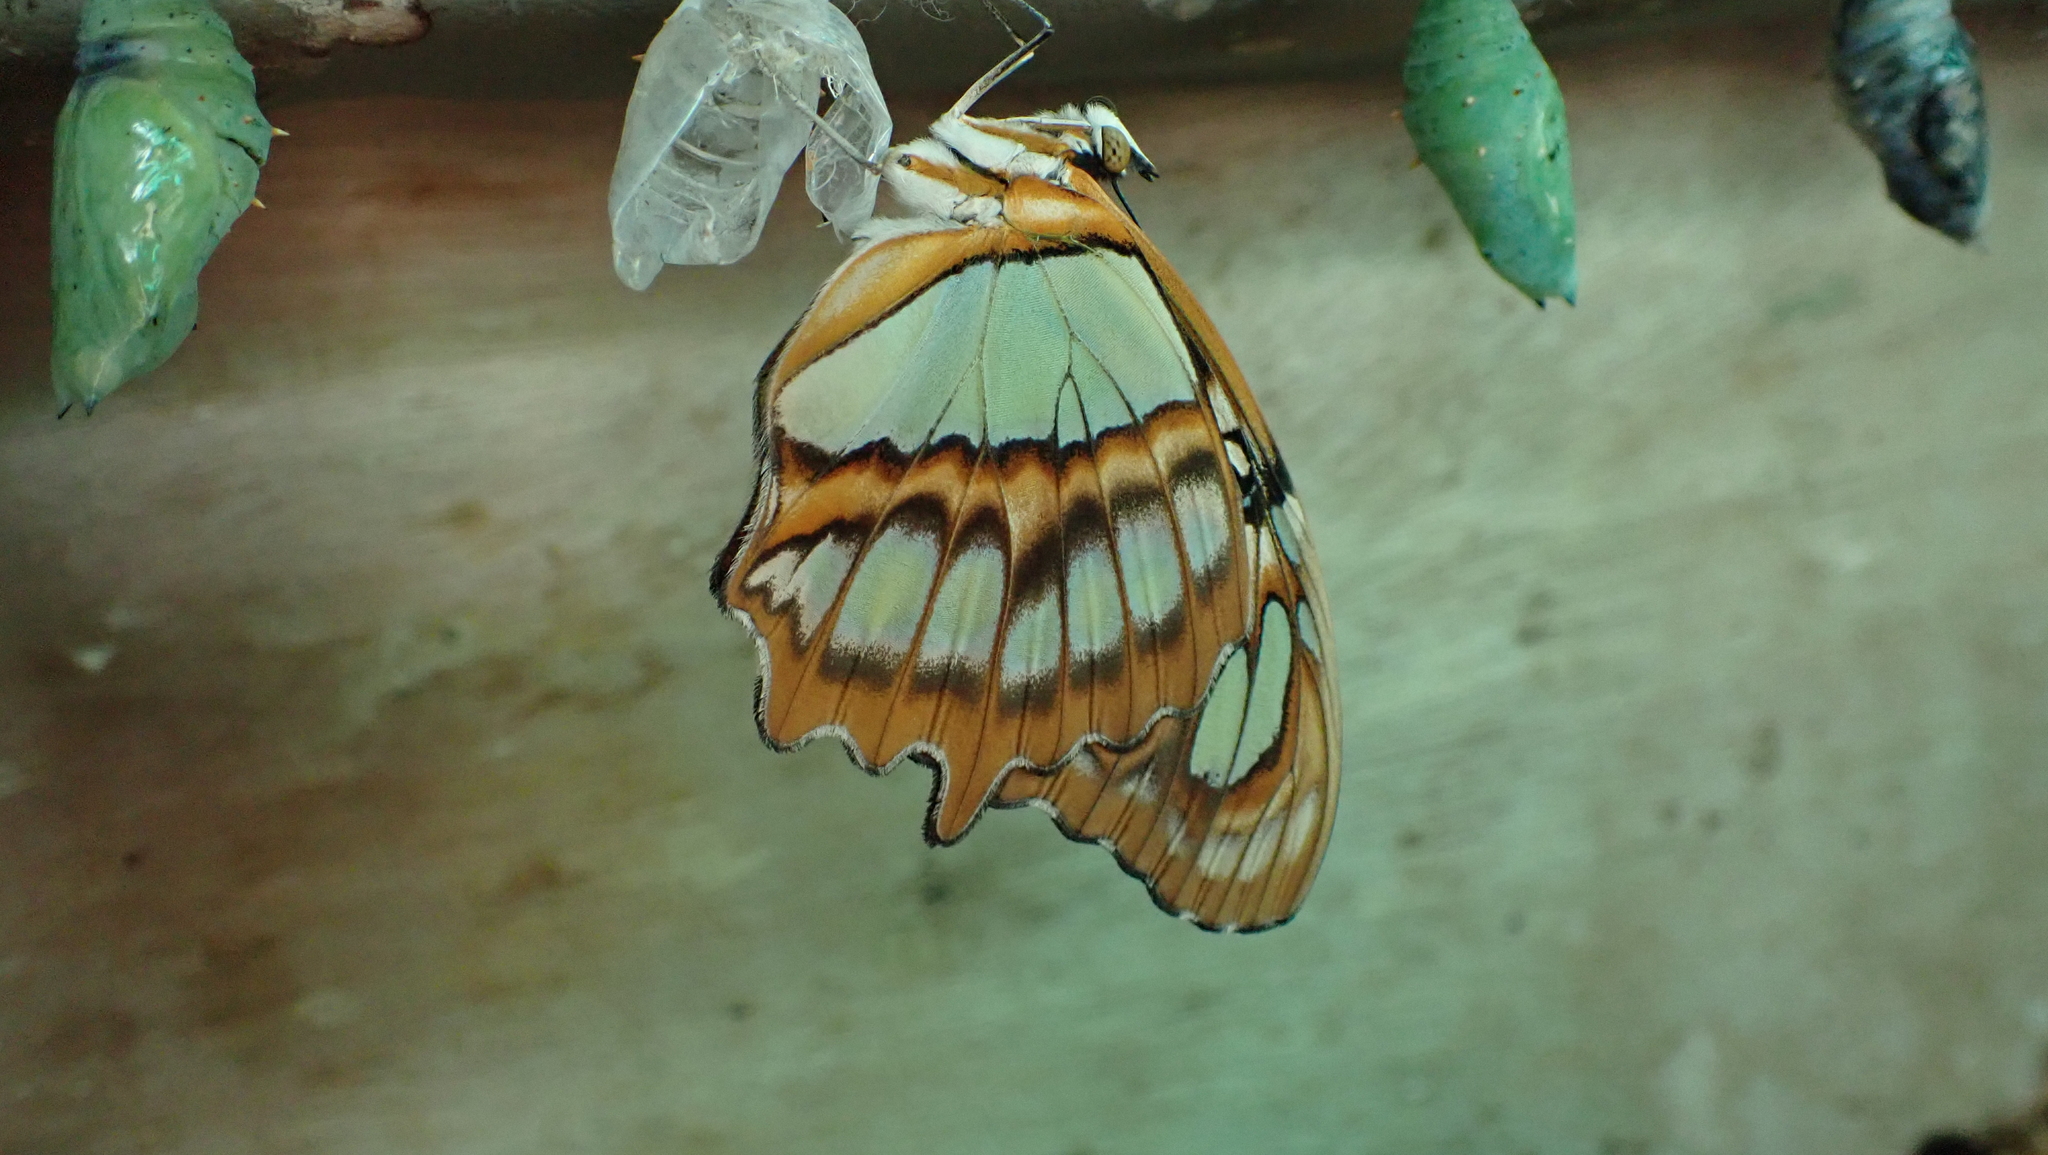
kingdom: Animalia
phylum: Arthropoda
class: Insecta
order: Lepidoptera
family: Nymphalidae
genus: Siproeta
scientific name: Siproeta stelenes
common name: Malachite
